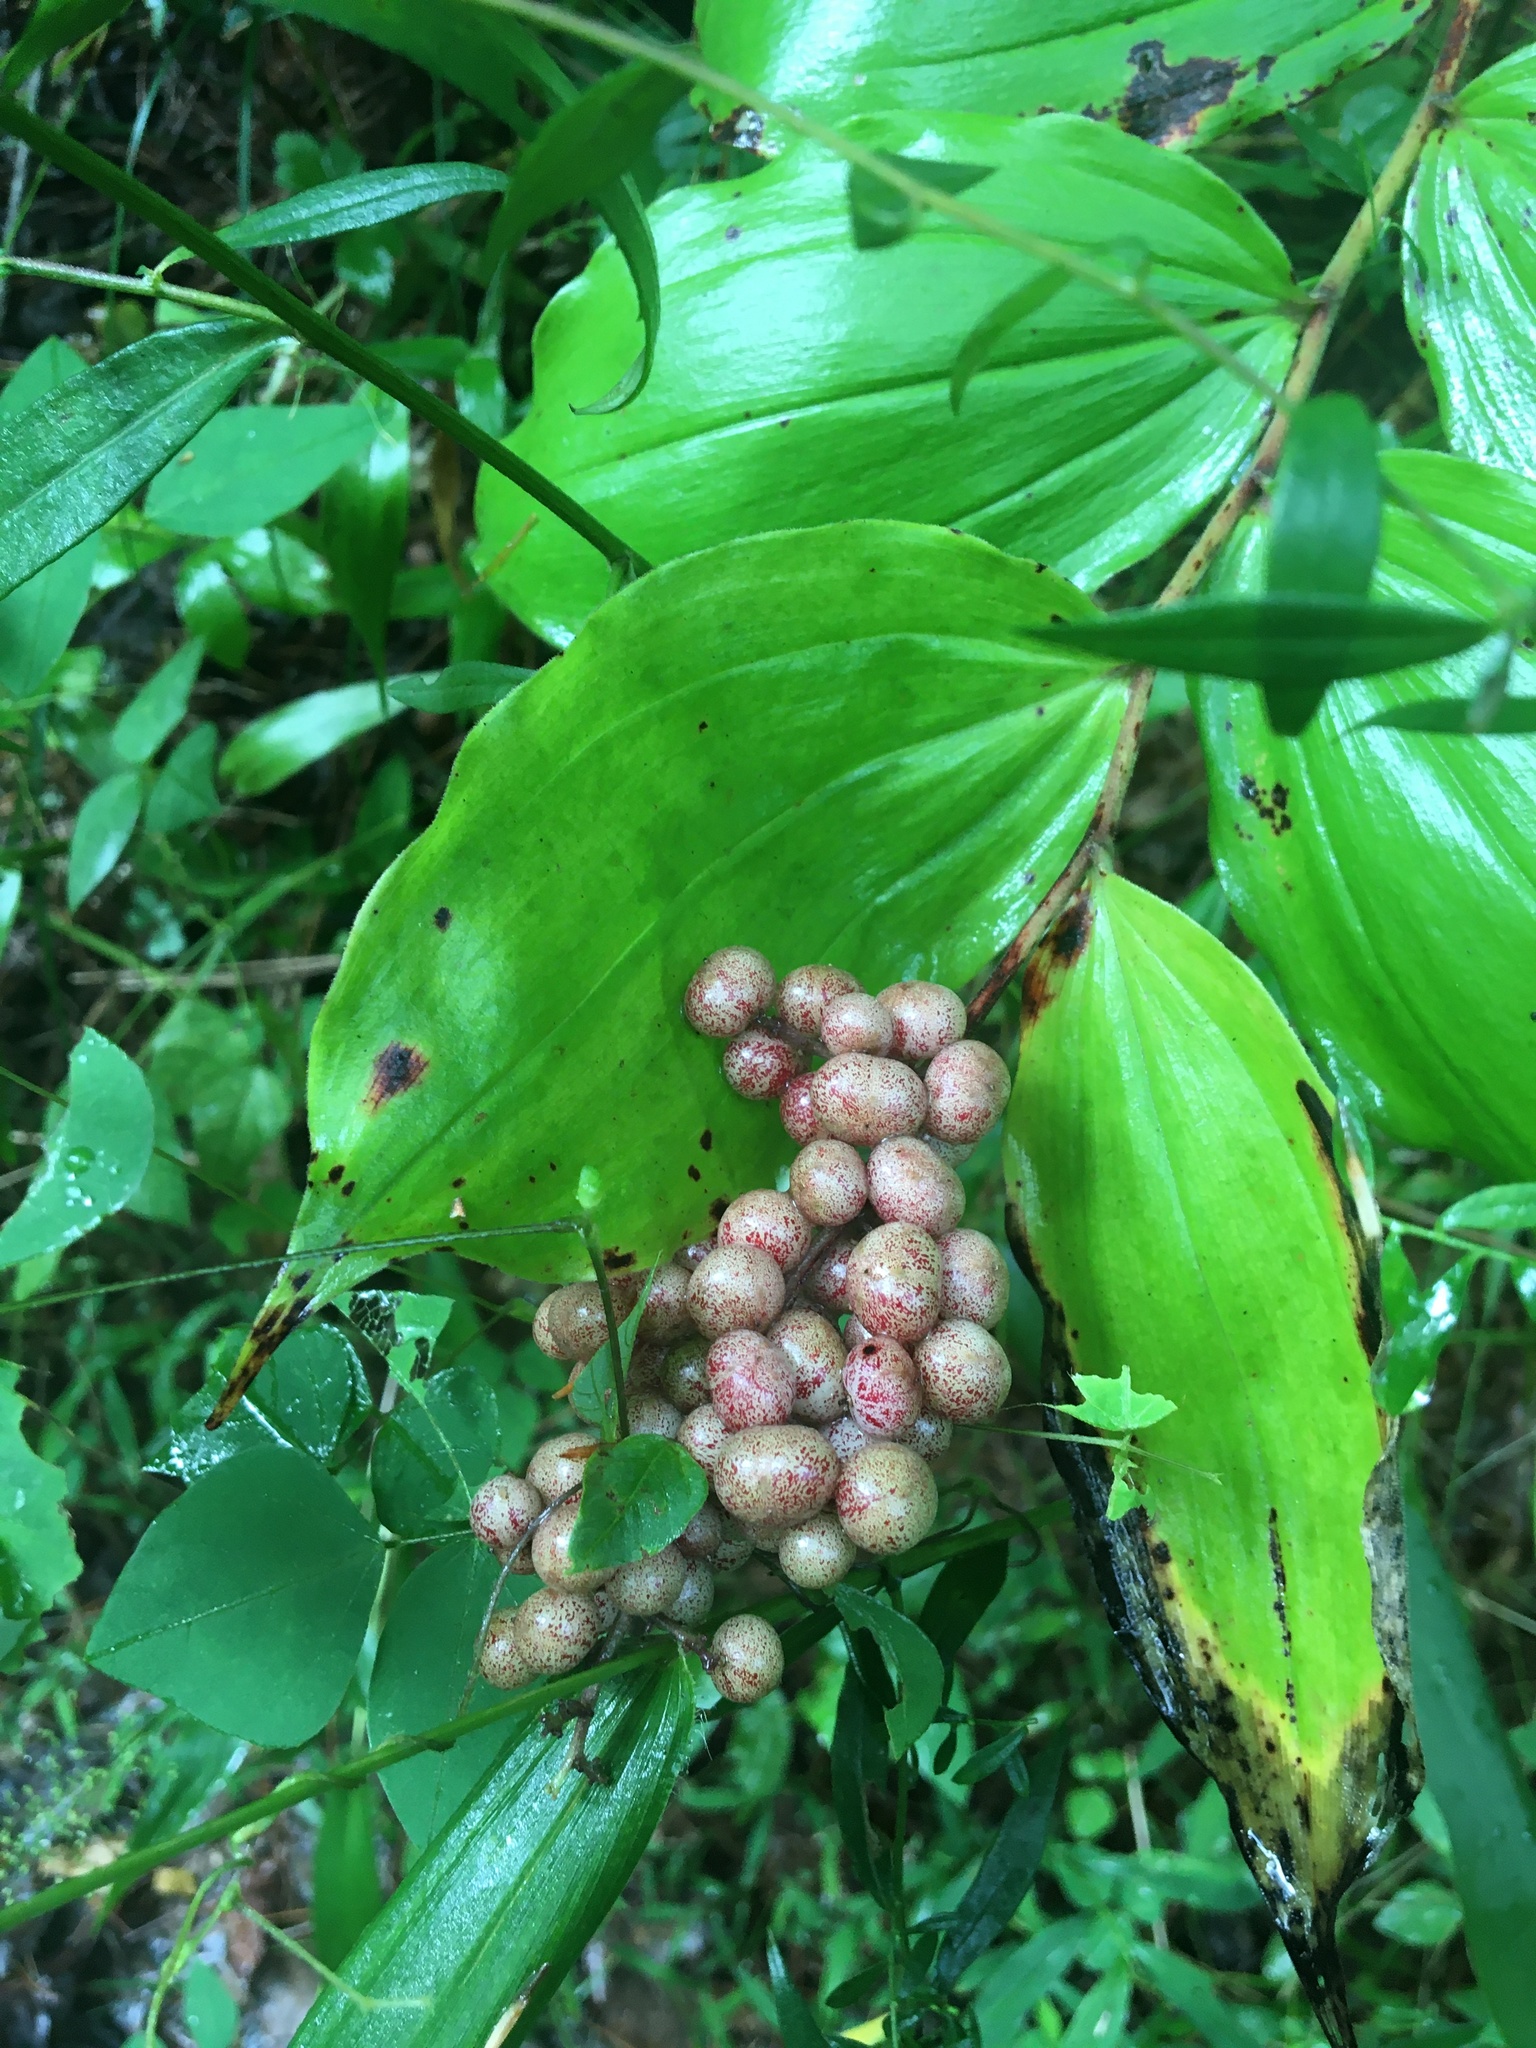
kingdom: Plantae
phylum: Tracheophyta
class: Liliopsida
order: Asparagales
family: Asparagaceae
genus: Maianthemum
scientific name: Maianthemum racemosum
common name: False spikenard
